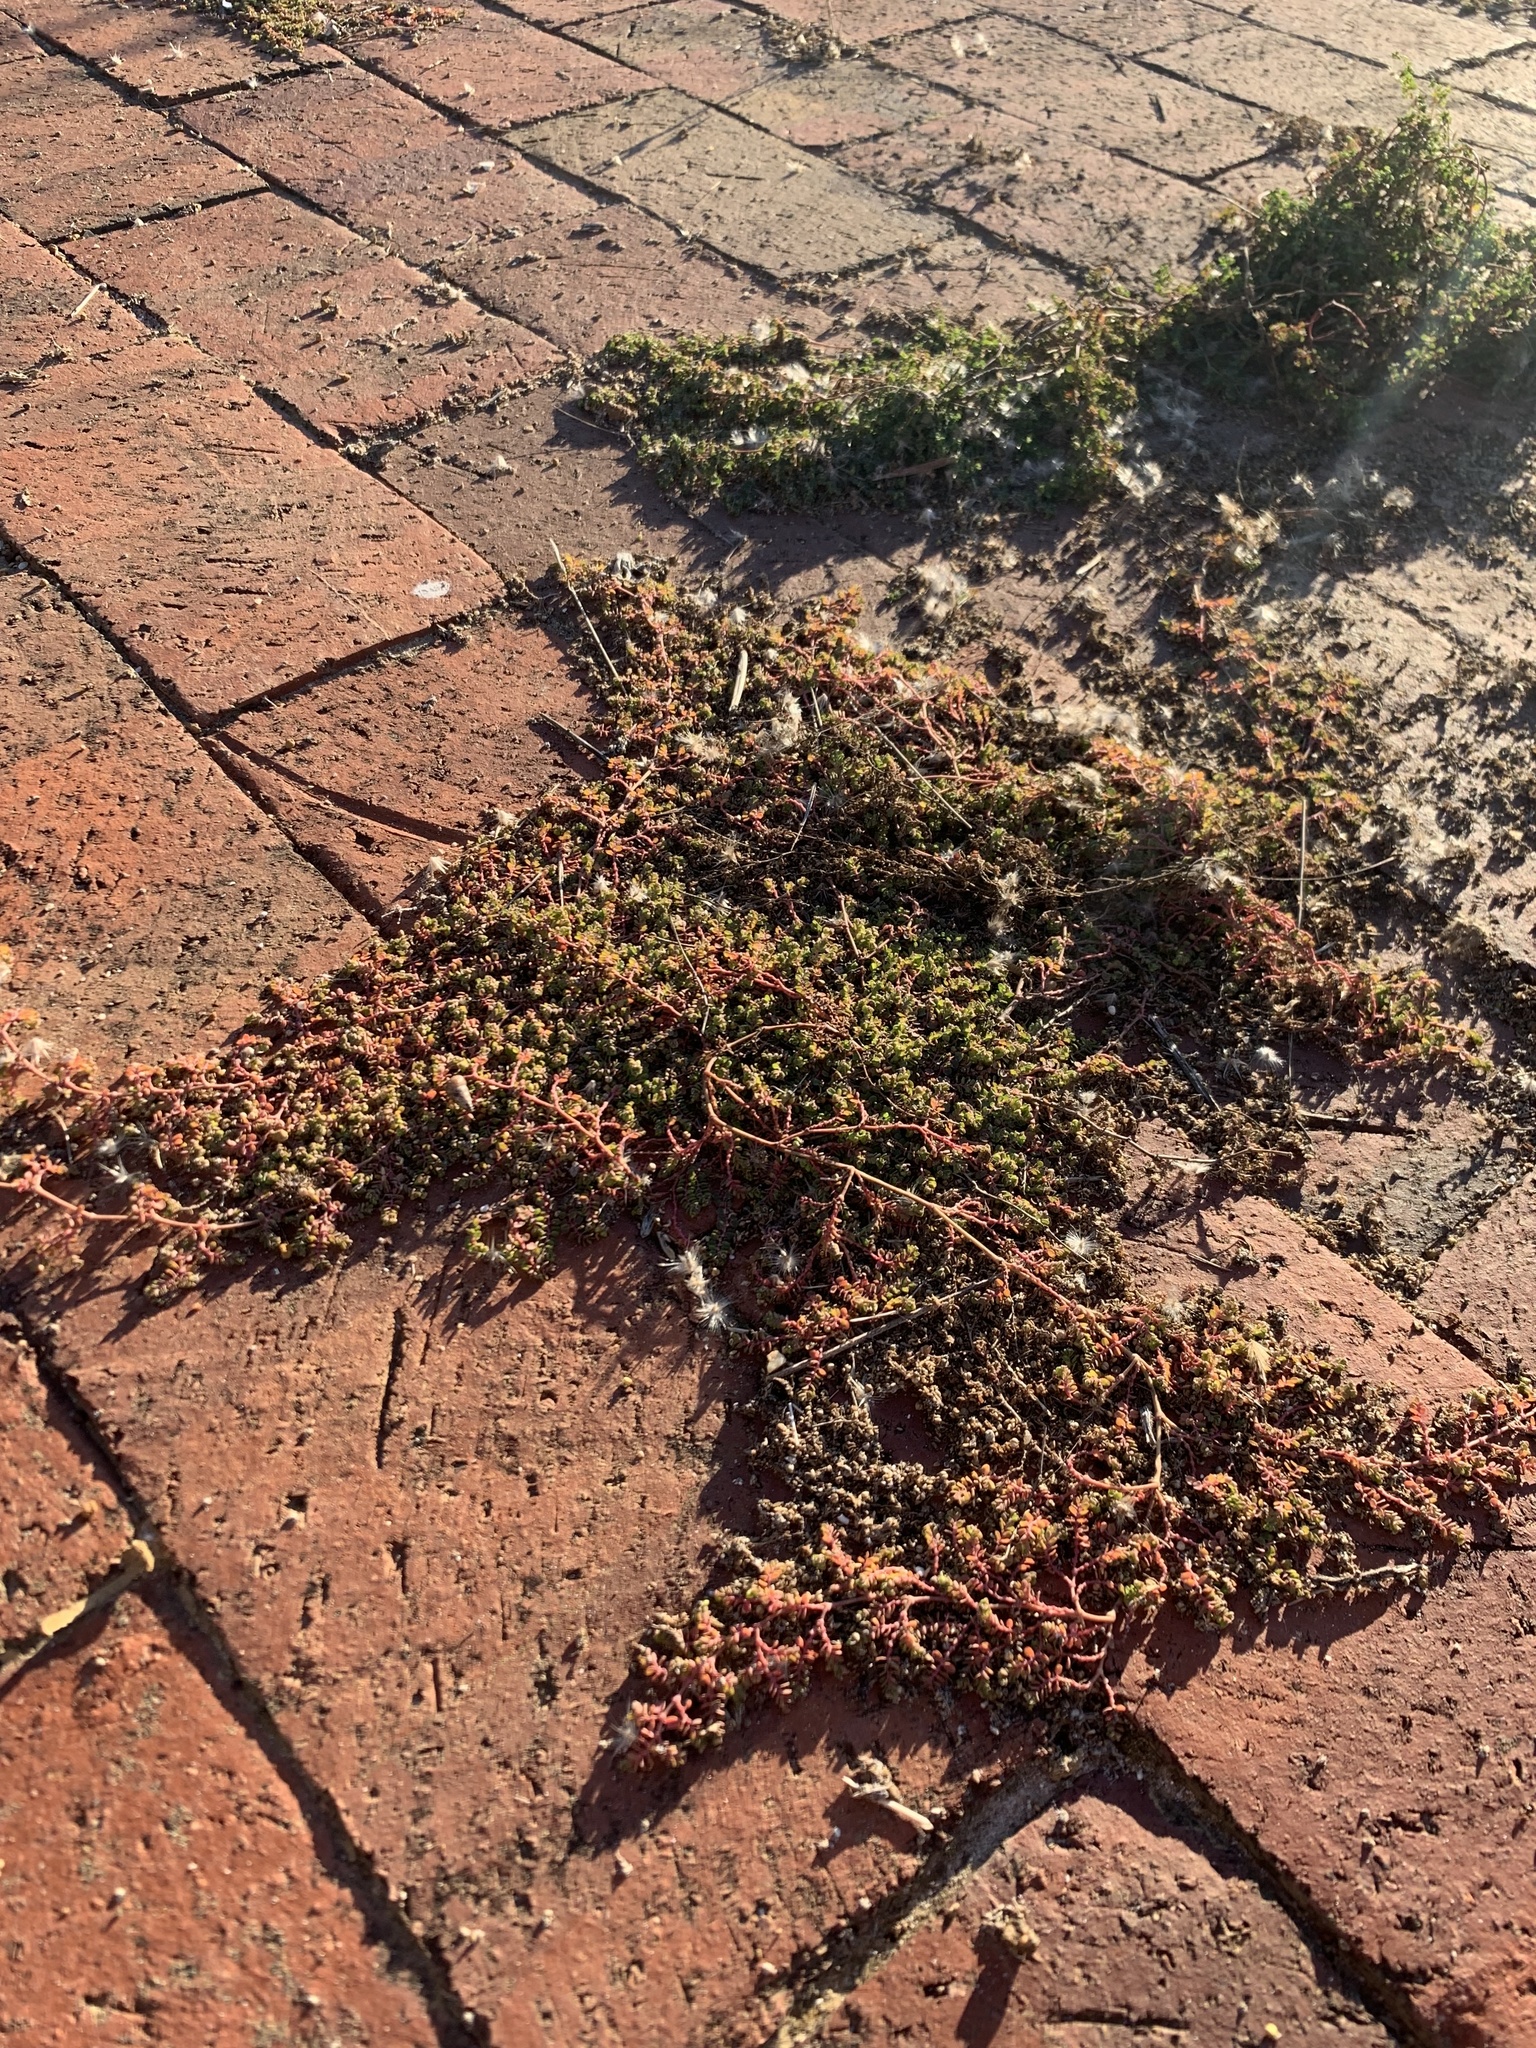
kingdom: Plantae
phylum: Tracheophyta
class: Magnoliopsida
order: Malpighiales
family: Euphorbiaceae
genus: Euphorbia
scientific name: Euphorbia serpens
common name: Matted sandmat
